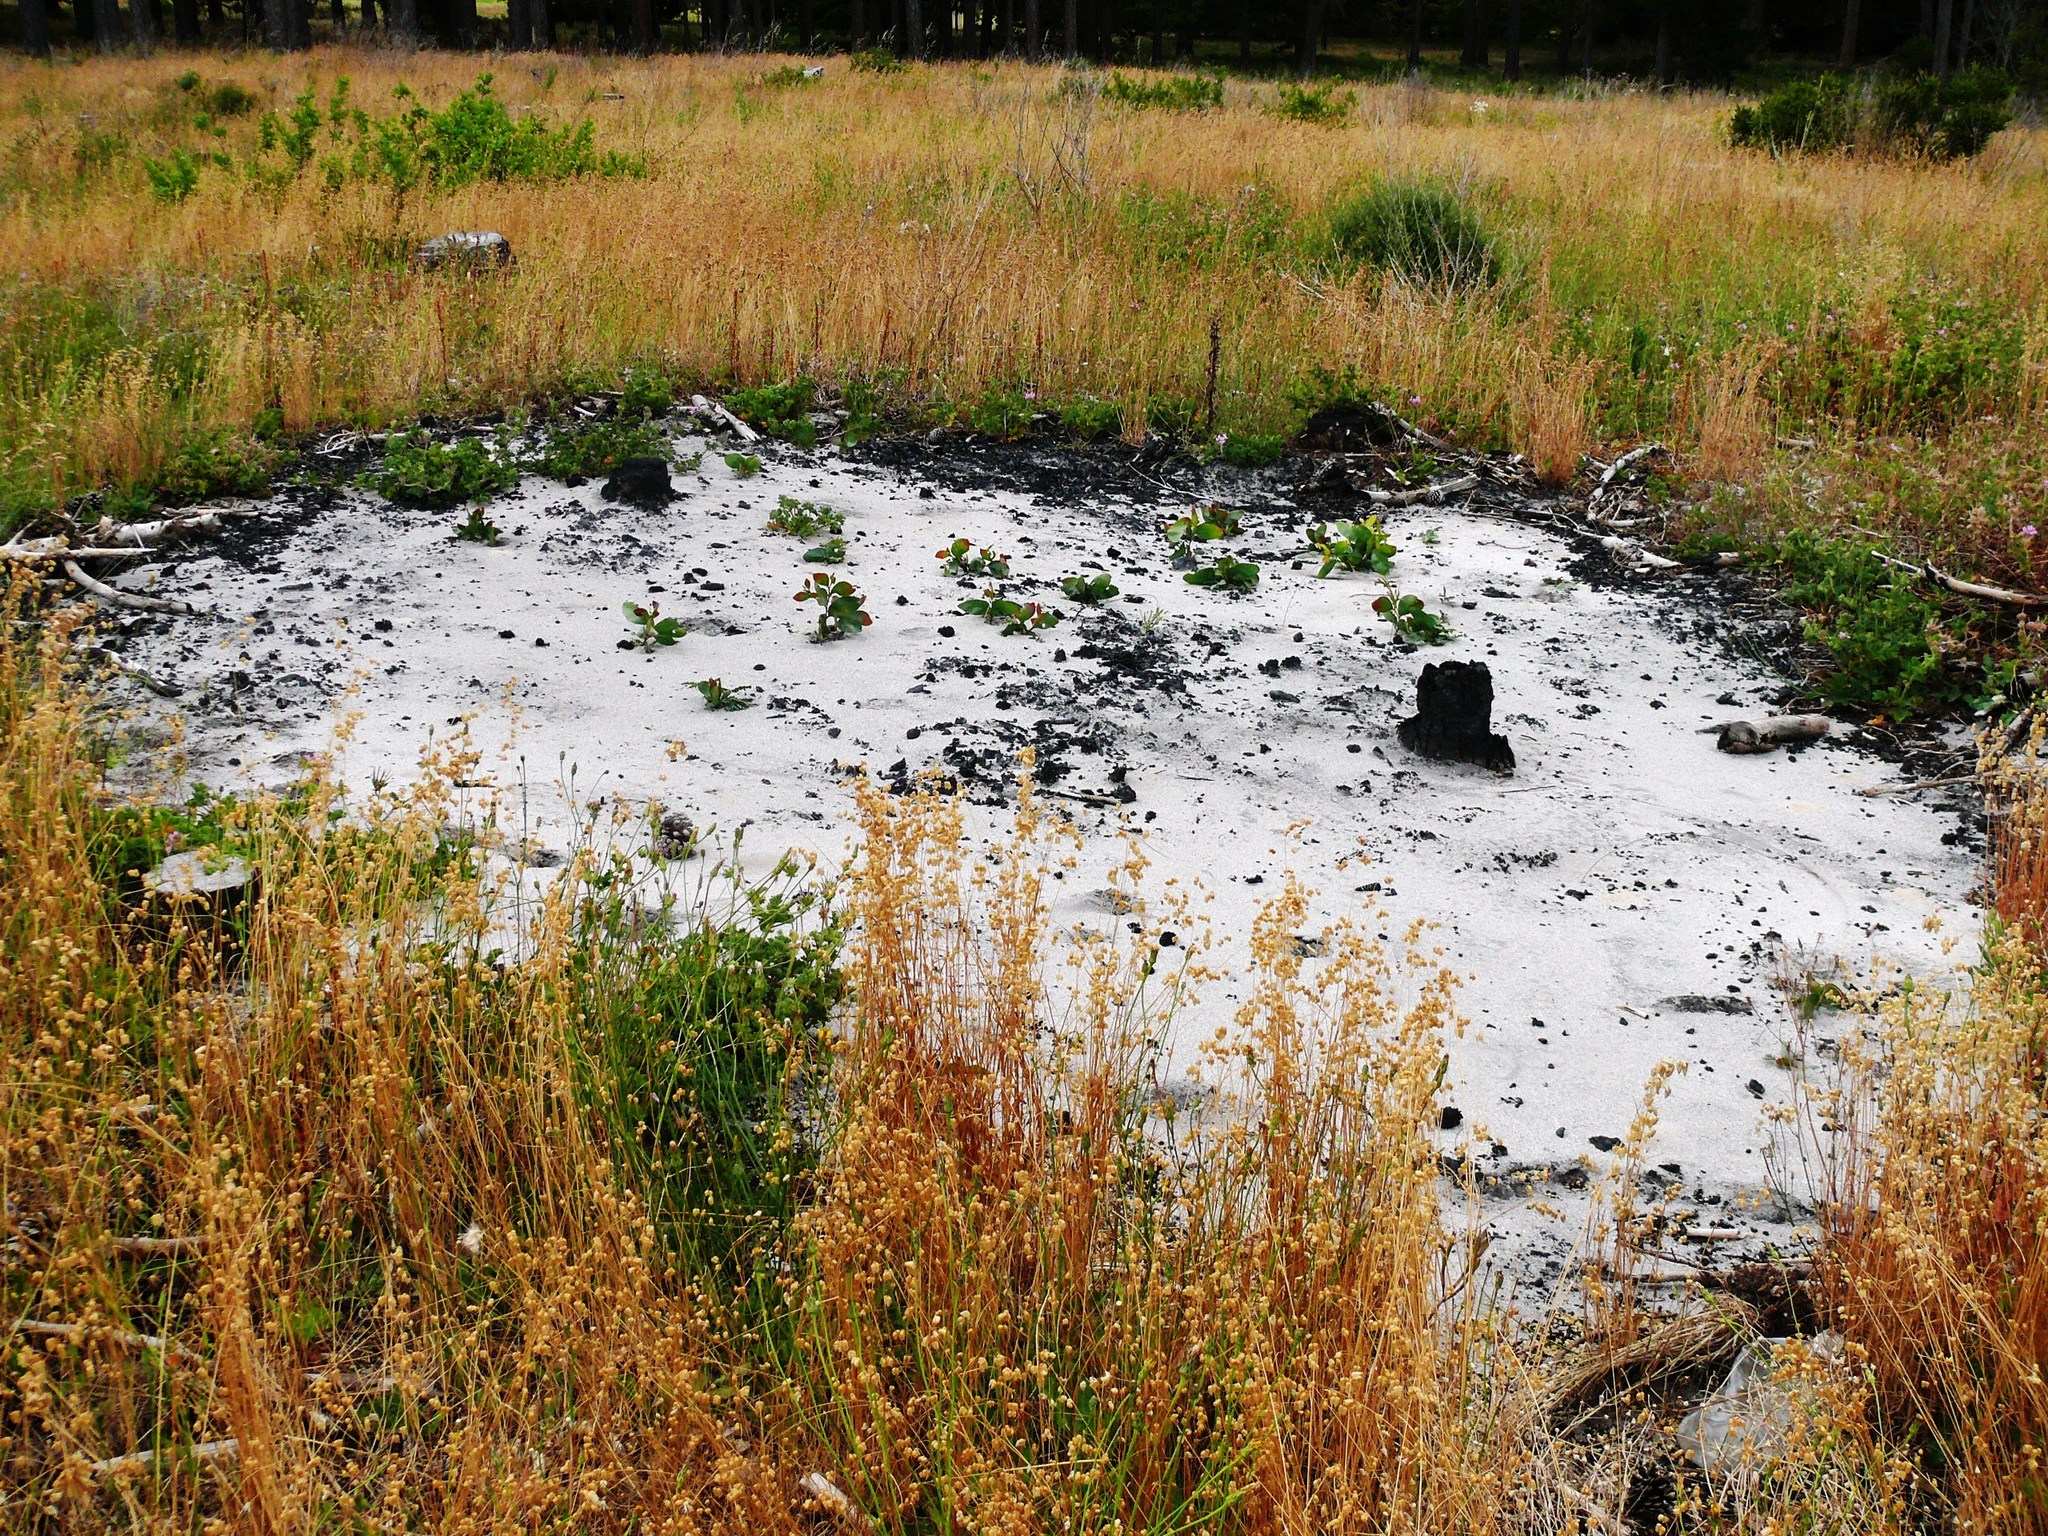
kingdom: Plantae
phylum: Tracheophyta
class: Magnoliopsida
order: Fabales
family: Fabaceae
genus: Acacia
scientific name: Acacia pycnantha
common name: Golden wattle
